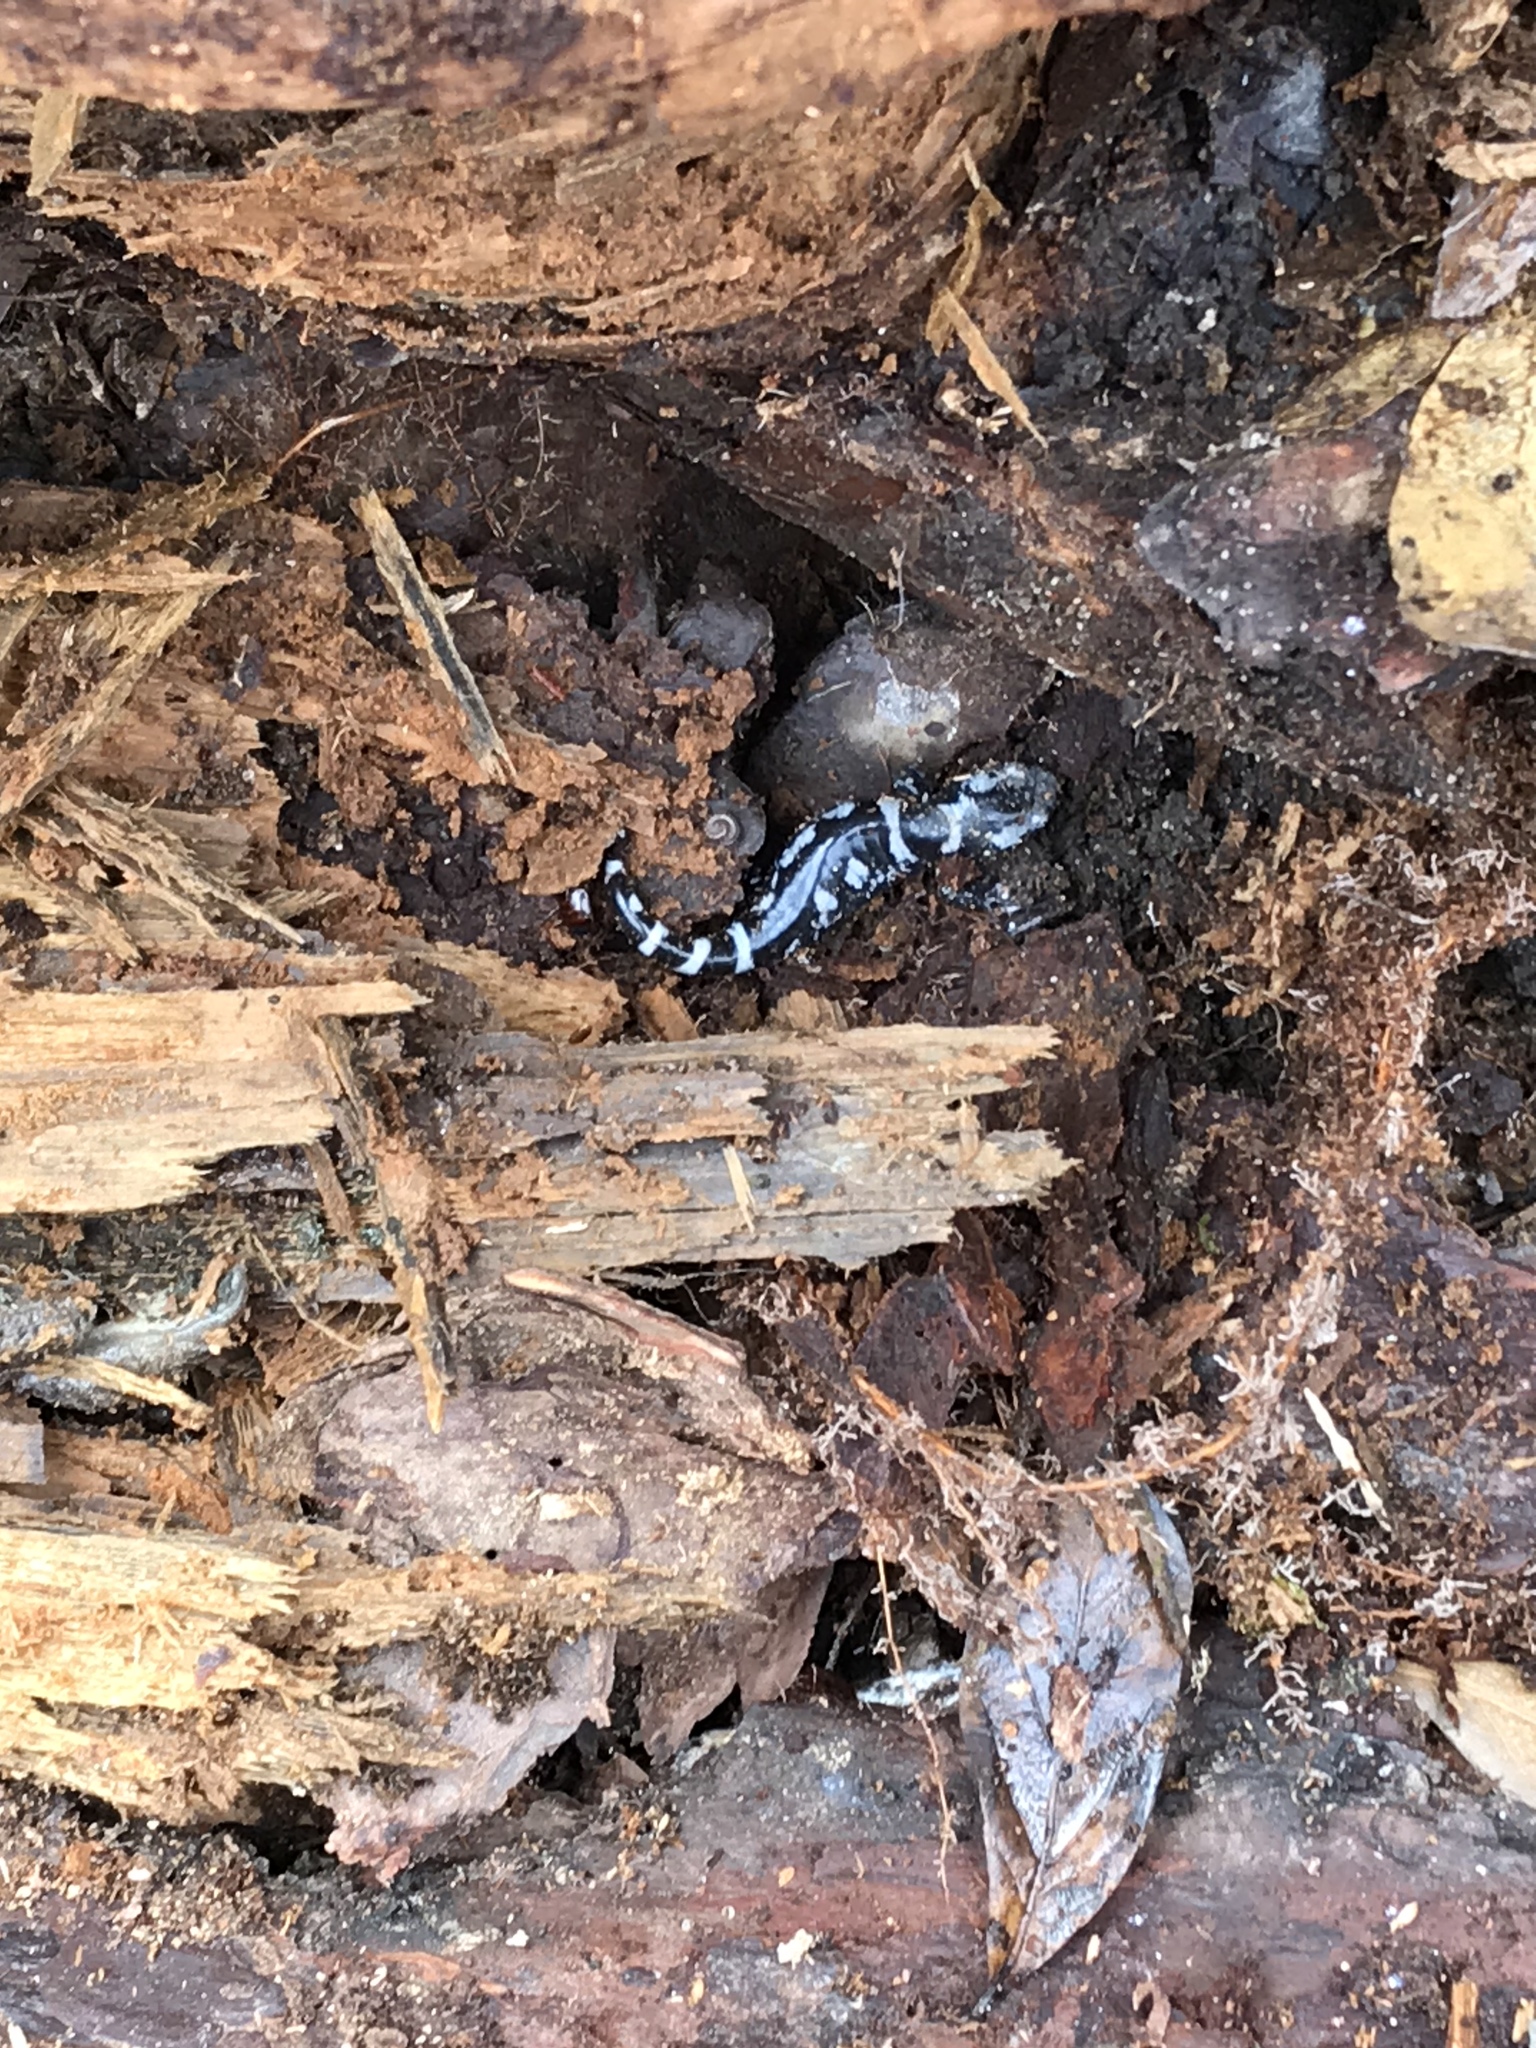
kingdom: Animalia
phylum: Chordata
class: Amphibia
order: Caudata
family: Ambystomatidae
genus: Ambystoma
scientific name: Ambystoma opacum
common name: Marbled salamander
